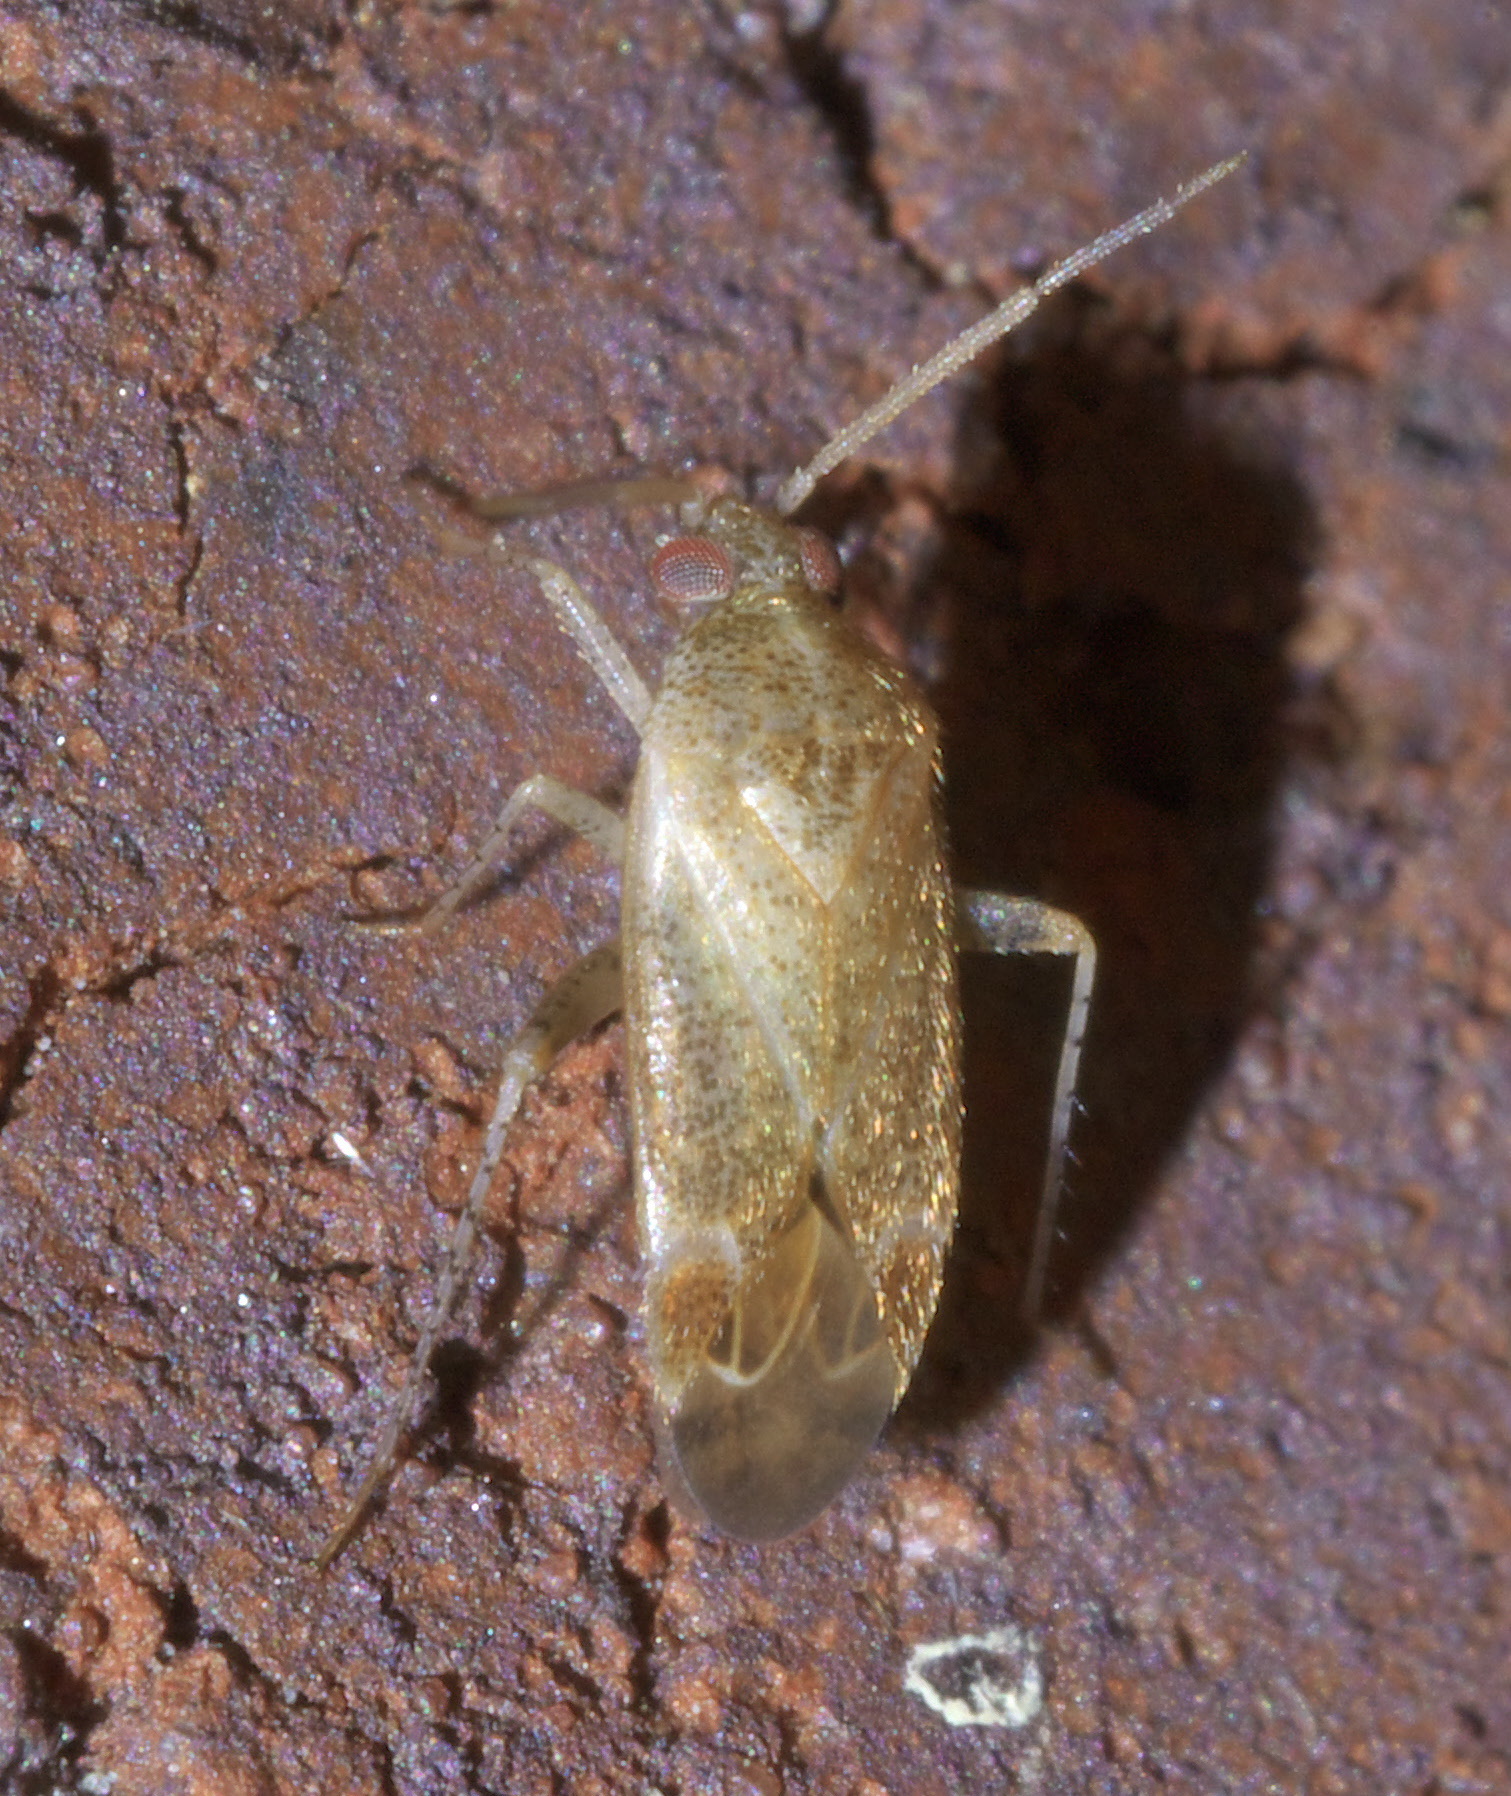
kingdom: Animalia
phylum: Arthropoda
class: Insecta
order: Hemiptera
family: Miridae
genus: Hamatophylus
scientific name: Hamatophylus guttulosus
